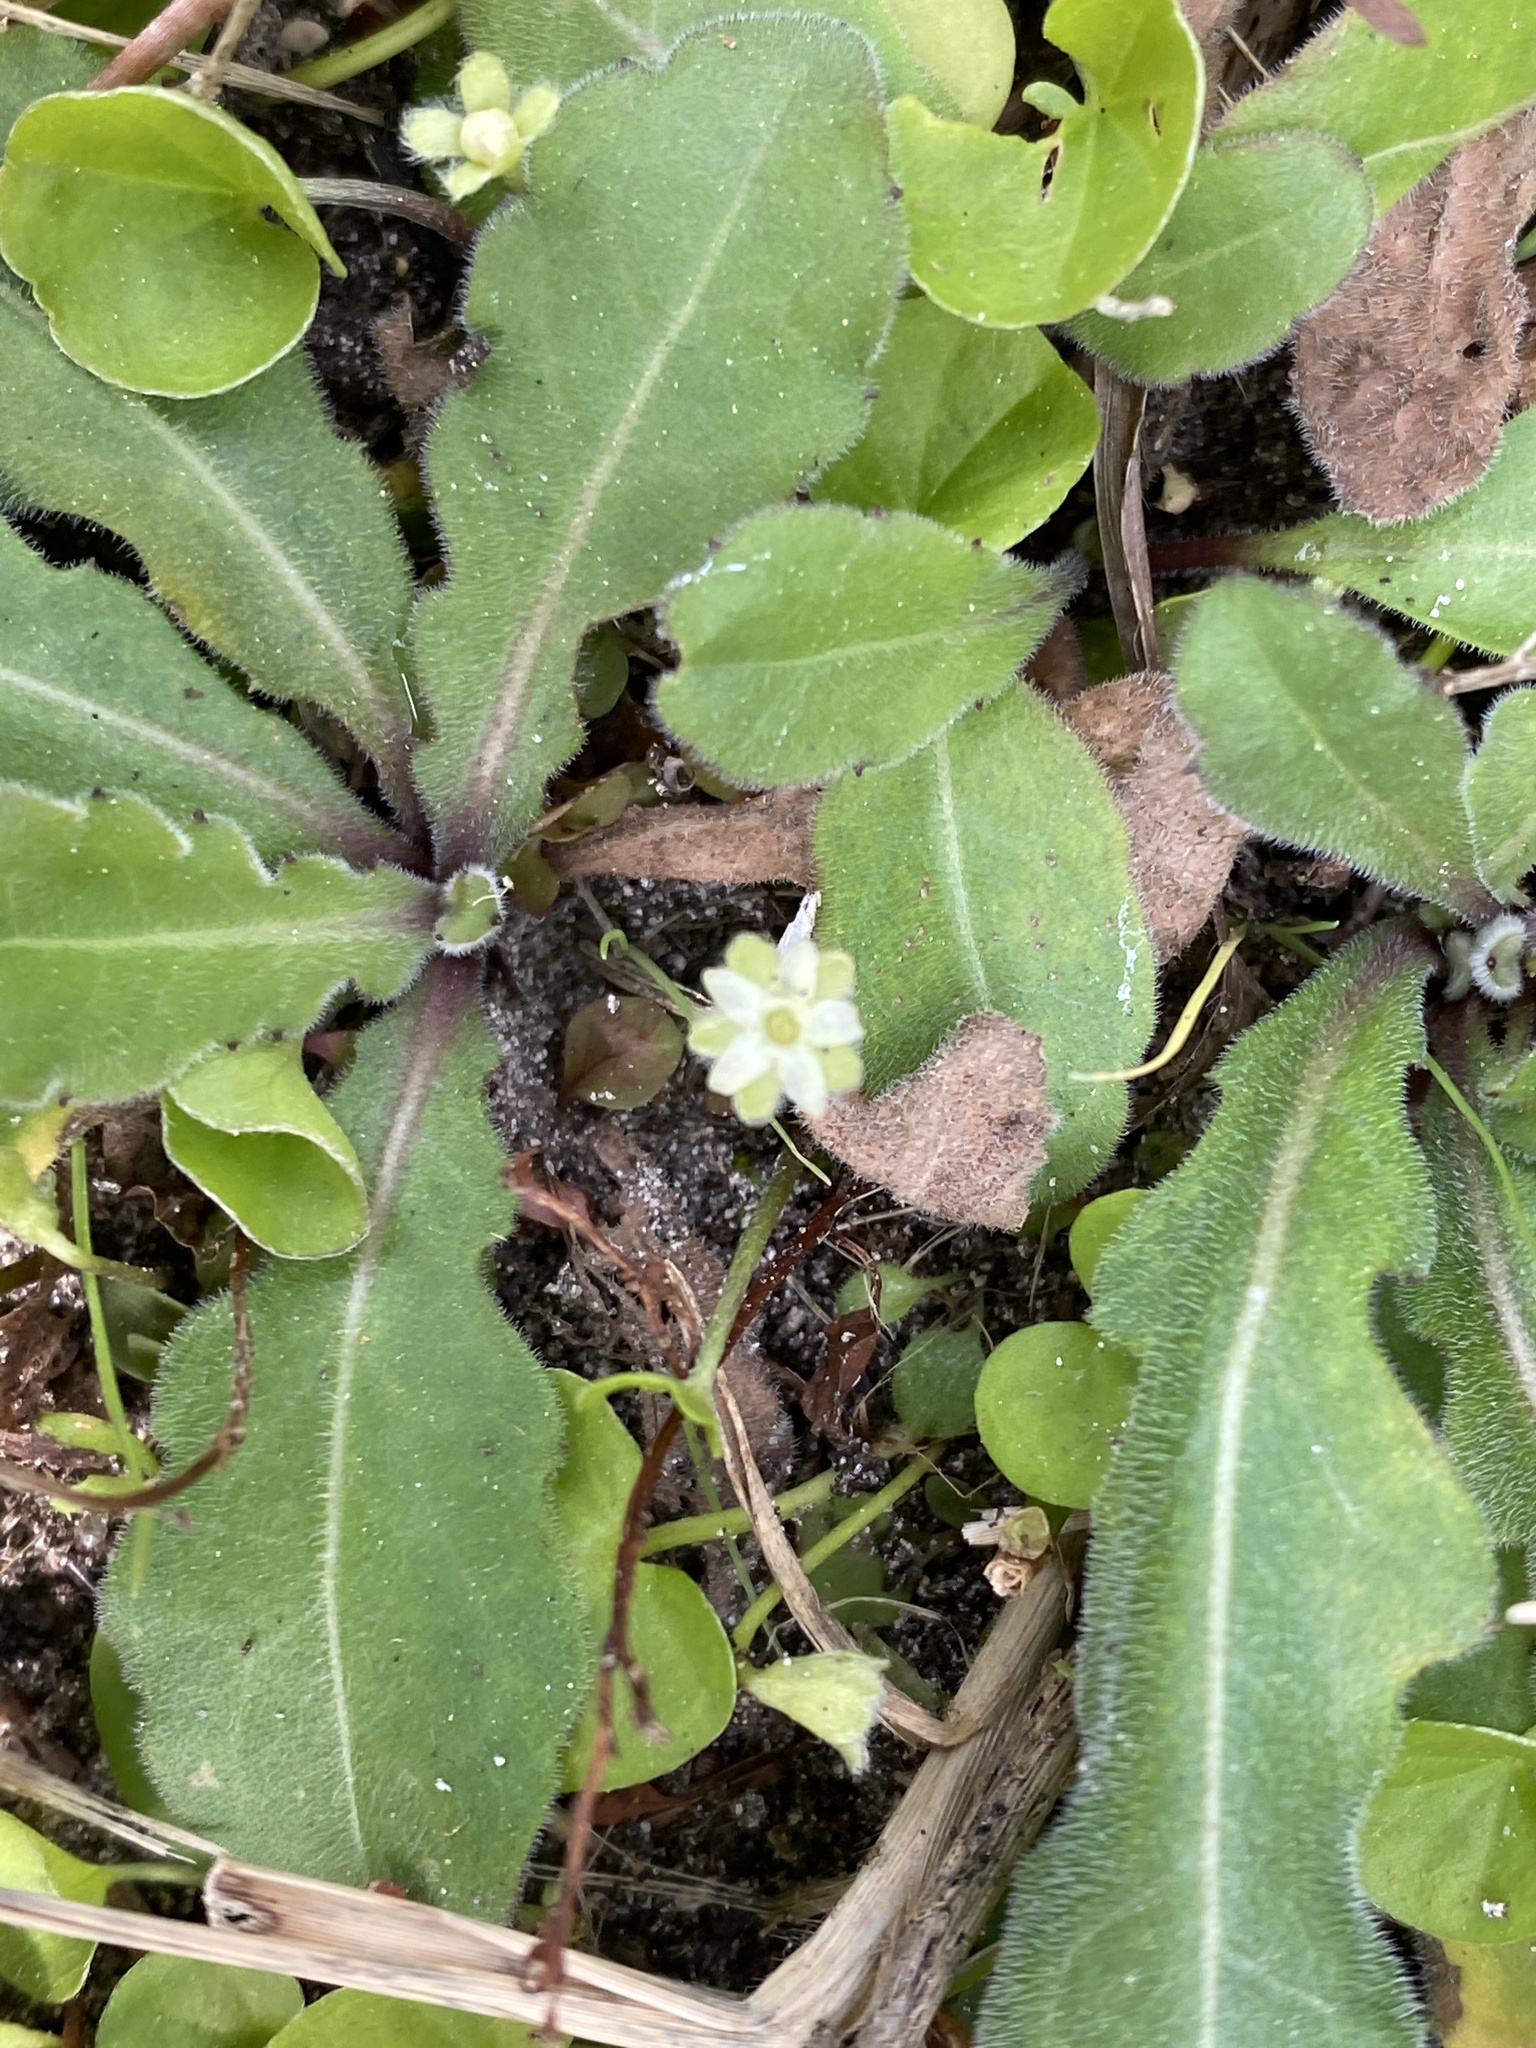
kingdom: Plantae
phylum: Tracheophyta
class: Magnoliopsida
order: Solanales
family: Convolvulaceae
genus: Dichondra
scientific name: Dichondra carolinensis
